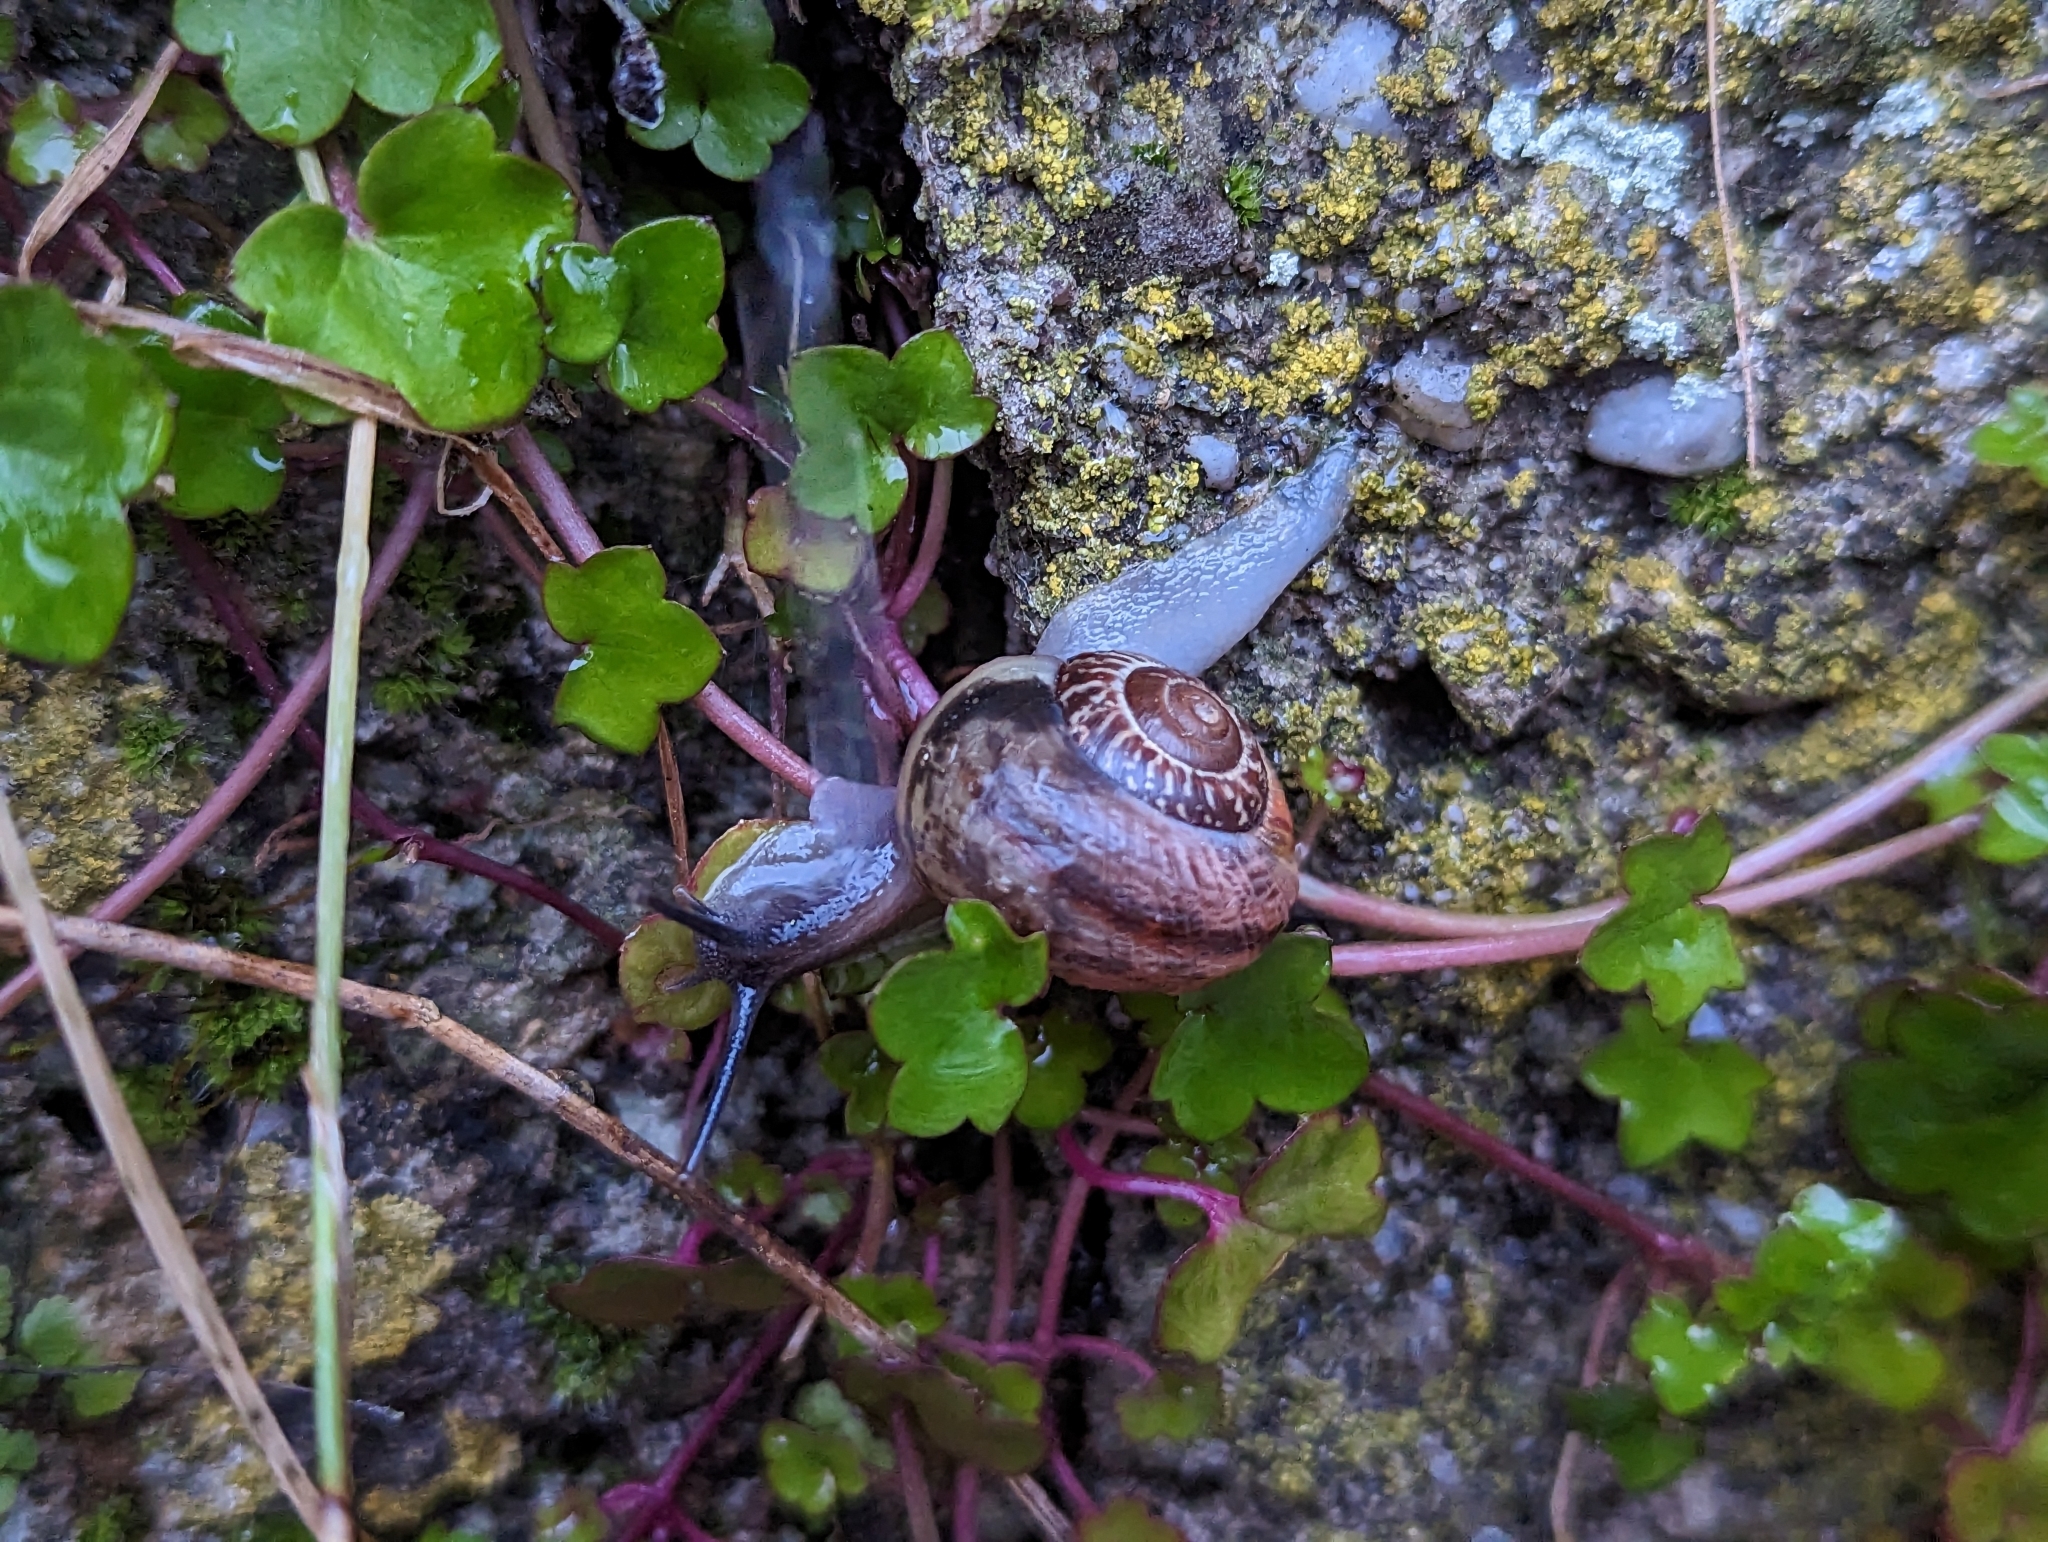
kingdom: Animalia
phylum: Mollusca
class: Gastropoda
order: Stylommatophora
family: Helicidae
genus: Arianta
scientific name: Arianta arbustorum
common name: Copse snail
